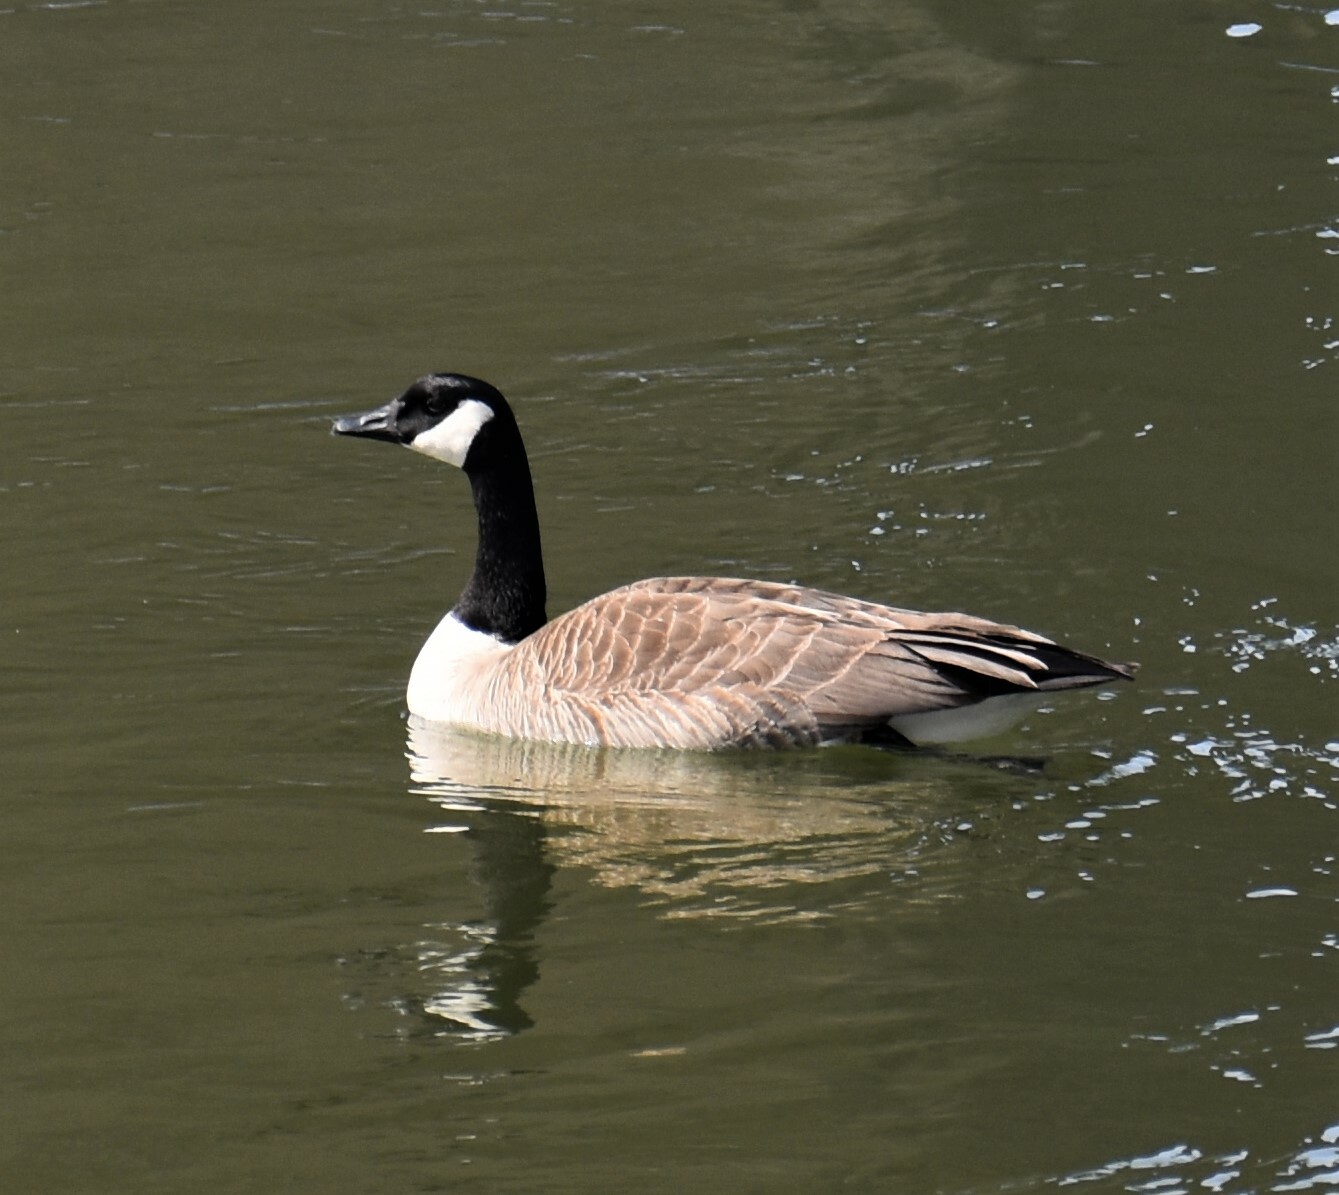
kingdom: Animalia
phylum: Chordata
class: Aves
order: Anseriformes
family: Anatidae
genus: Branta
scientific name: Branta canadensis
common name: Canada goose
